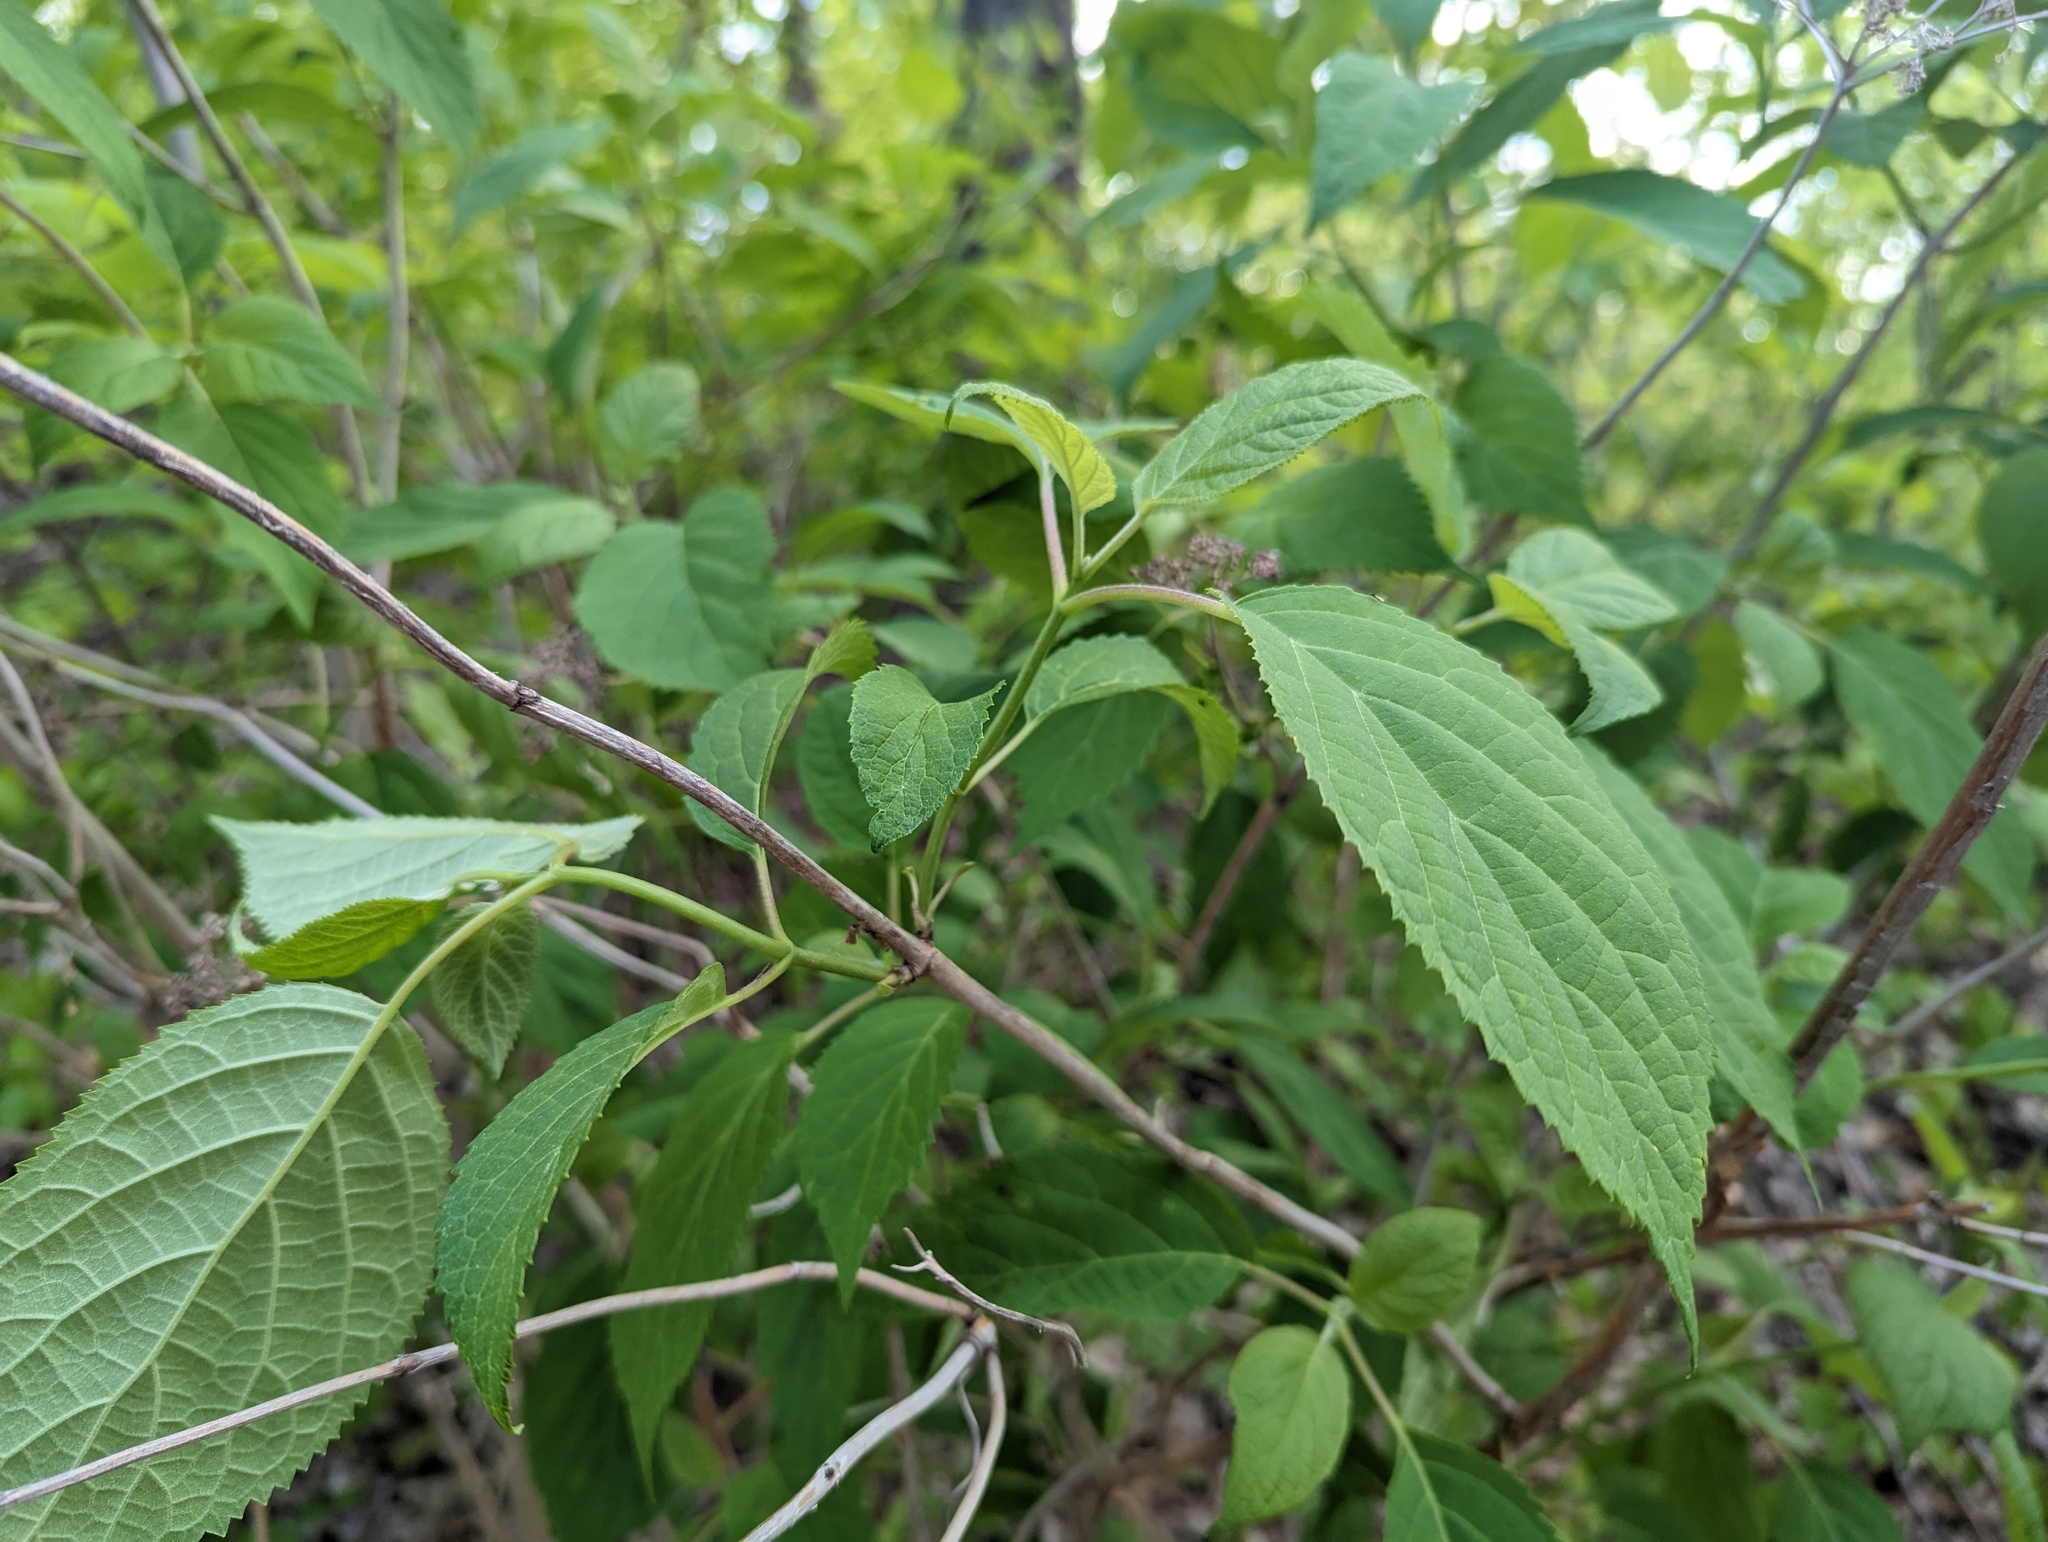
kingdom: Plantae
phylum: Tracheophyta
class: Magnoliopsida
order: Cornales
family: Hydrangeaceae
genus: Hydrangea
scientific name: Hydrangea arborescens
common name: Sevenbark
